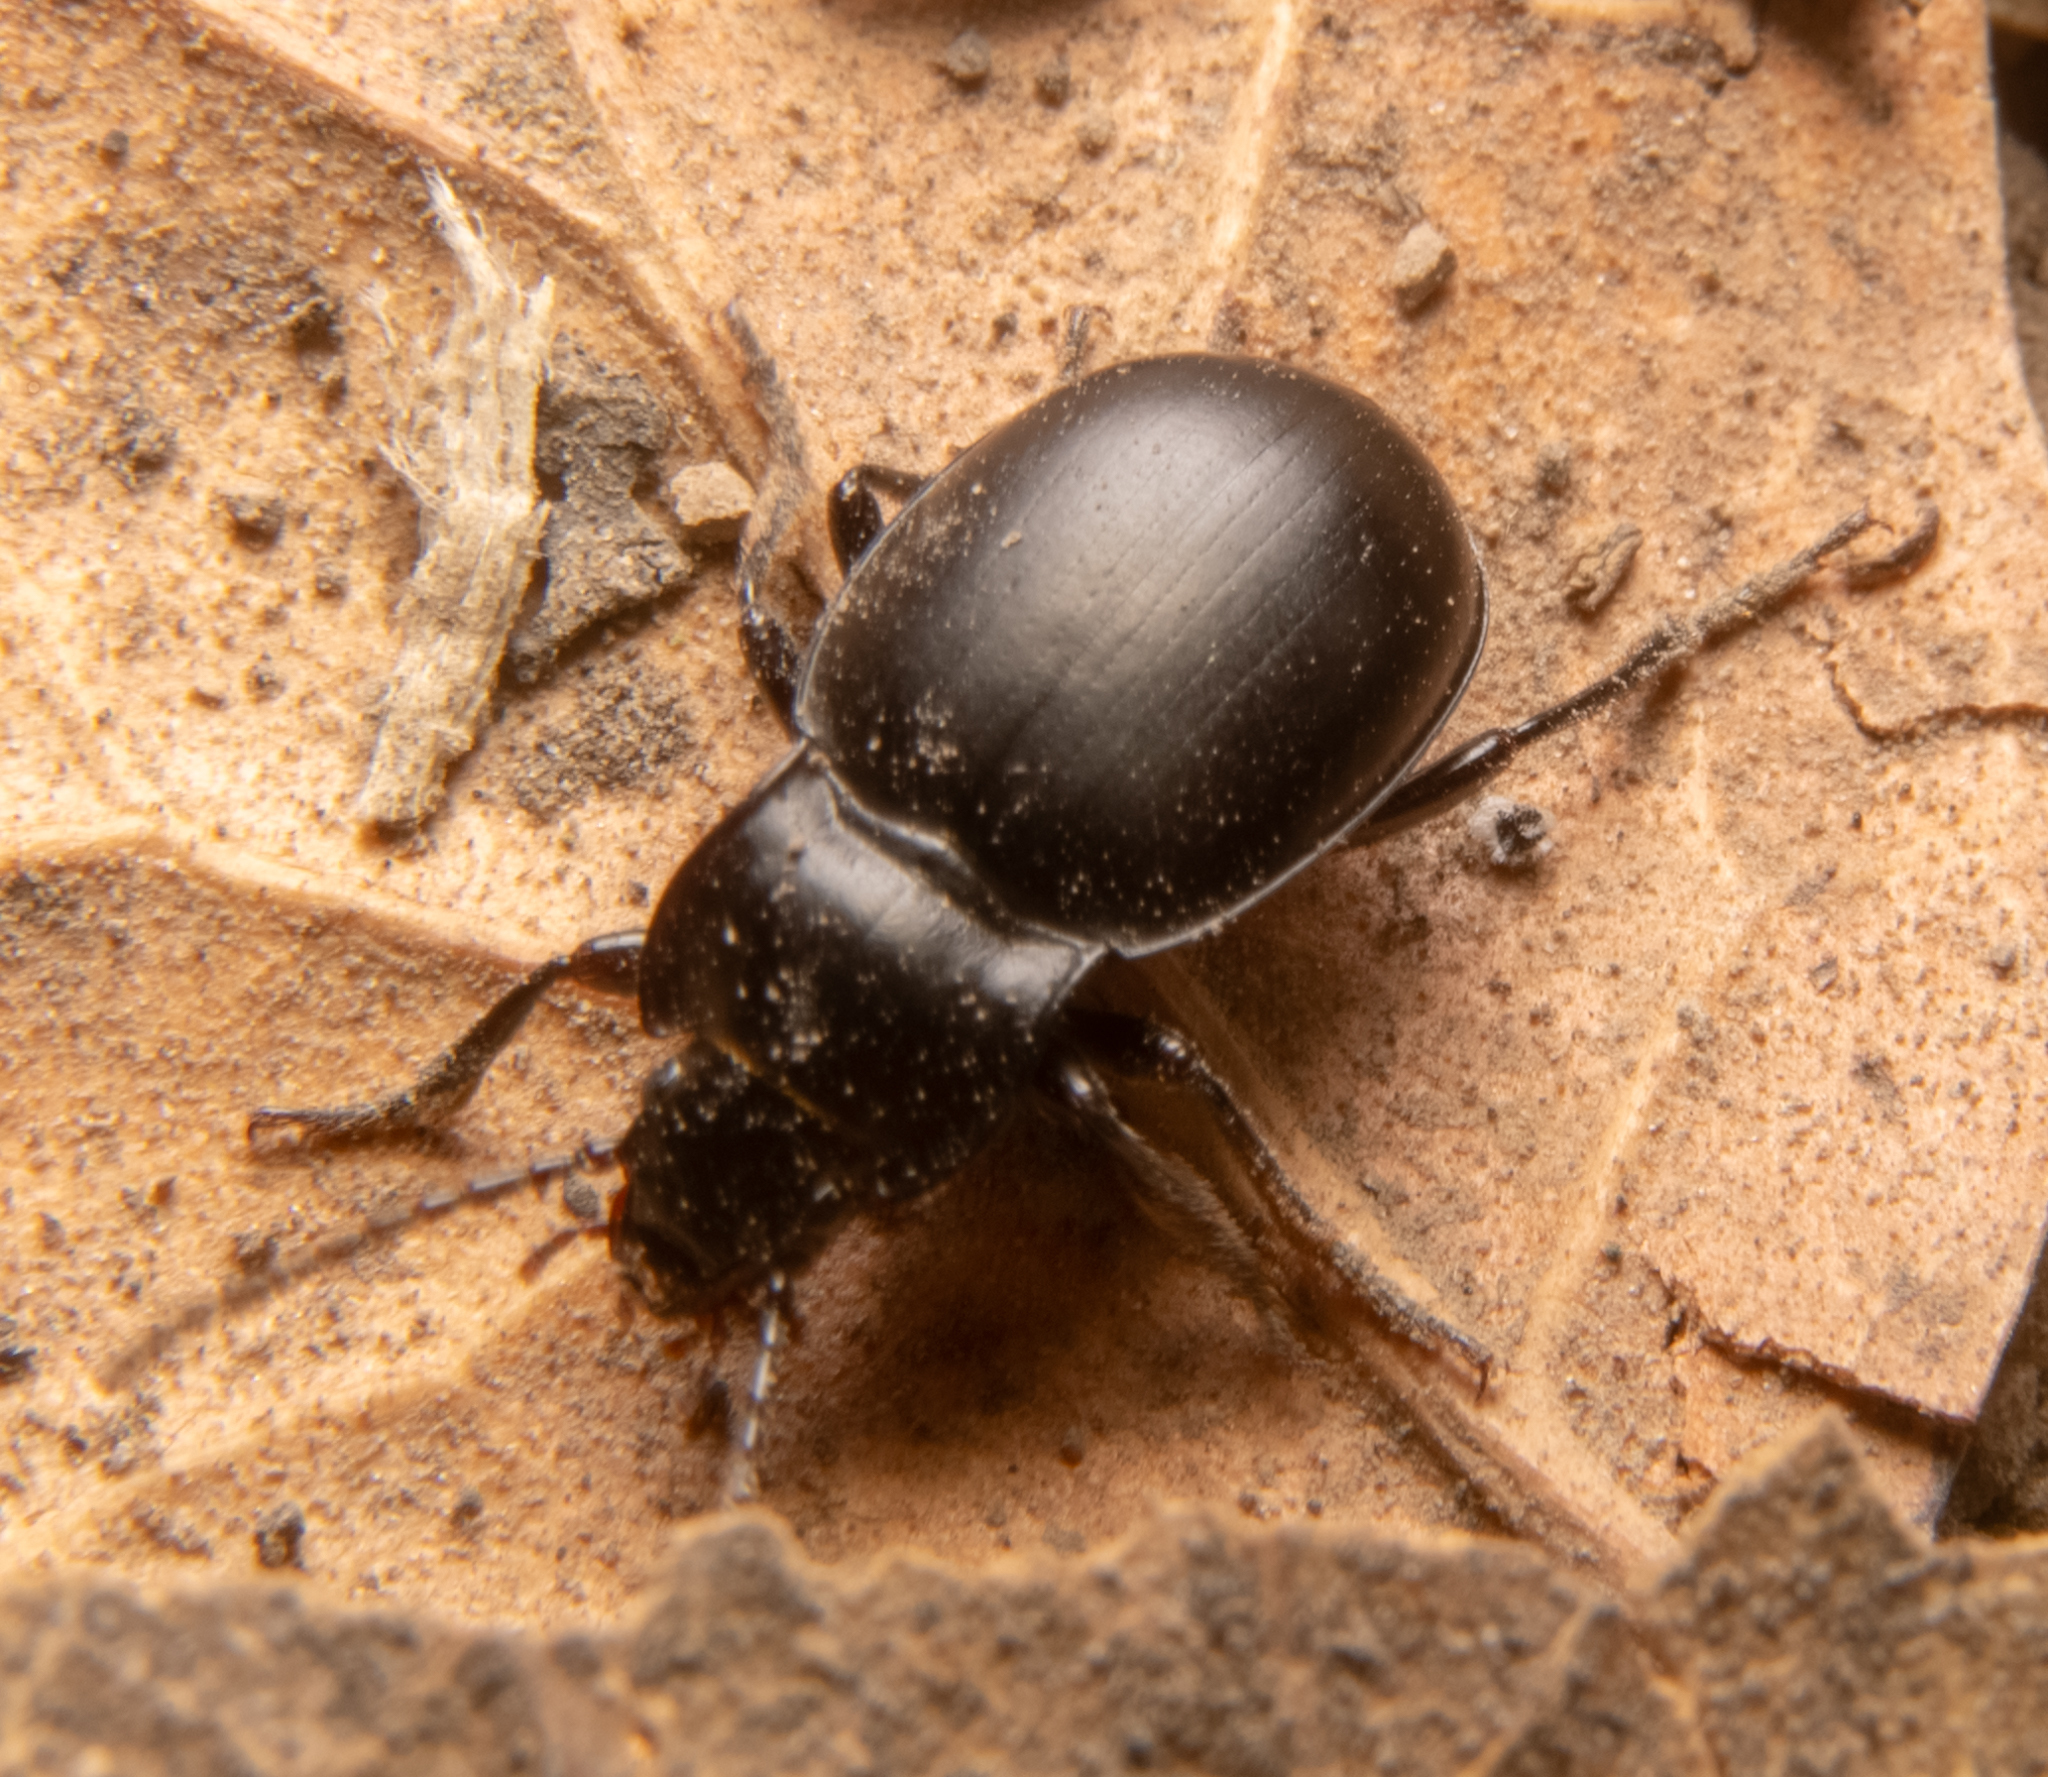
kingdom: Animalia
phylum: Arthropoda
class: Insecta
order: Coleoptera
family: Carabidae
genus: Metrius
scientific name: Metrius contractus
